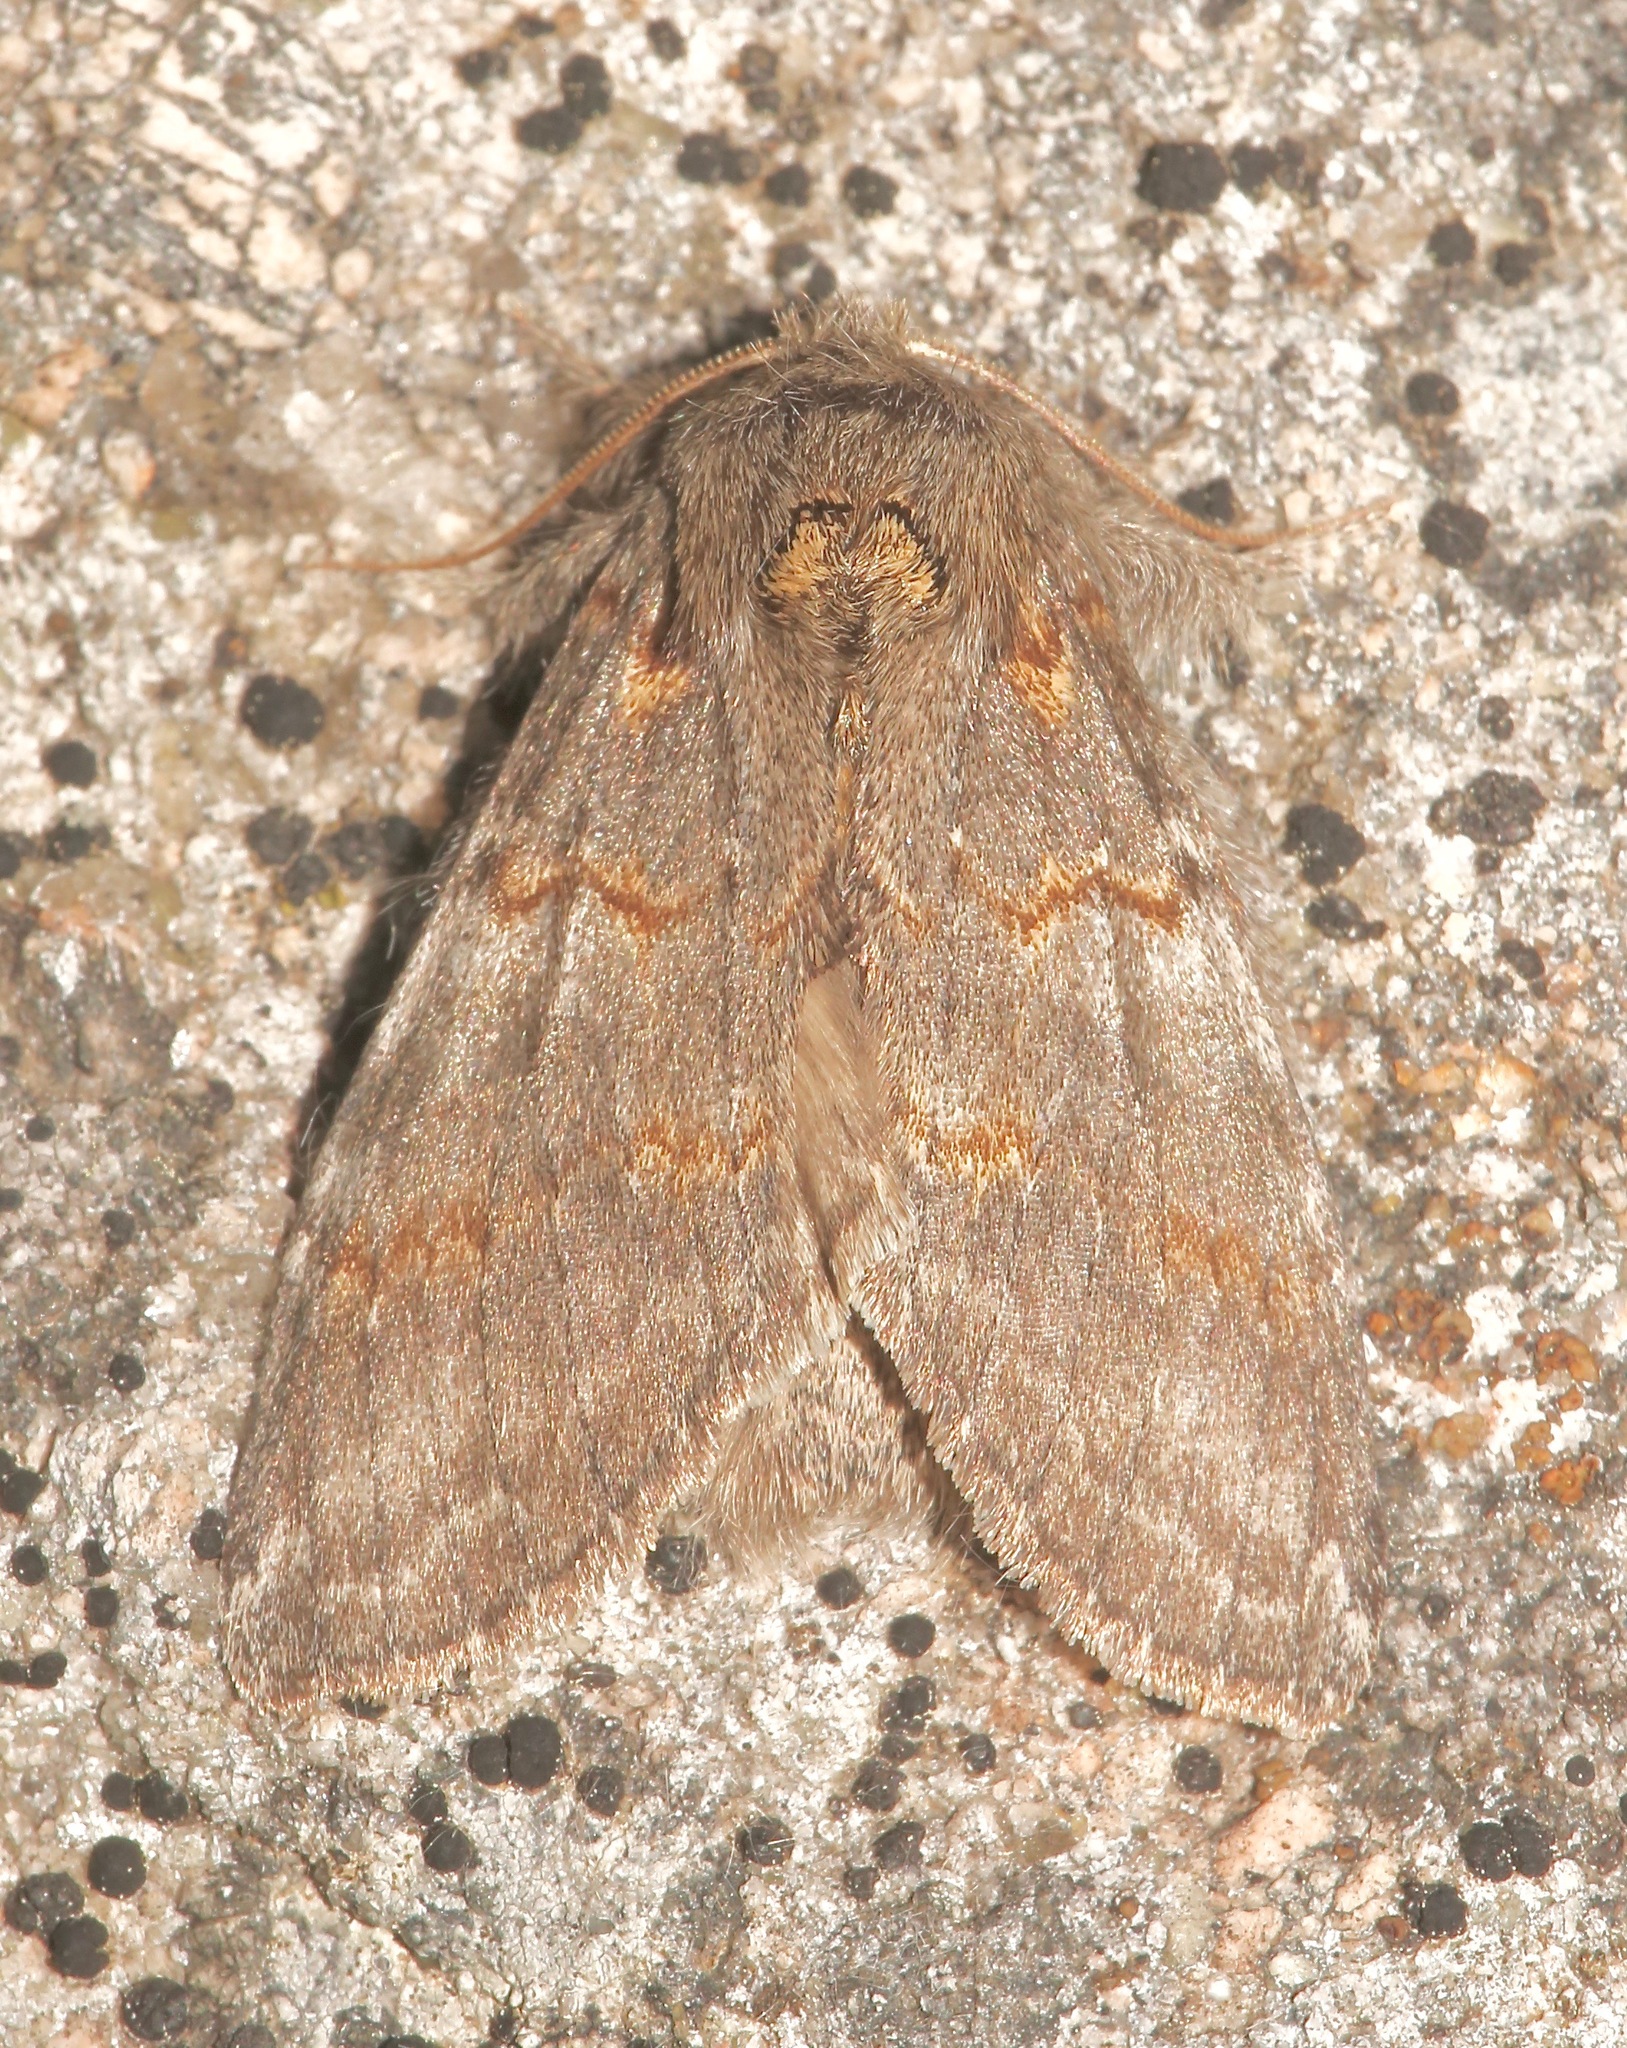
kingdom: Animalia
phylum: Arthropoda
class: Insecta
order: Lepidoptera
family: Notodontidae
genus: Peridea
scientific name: Peridea angulosa
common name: Angulose prominent
